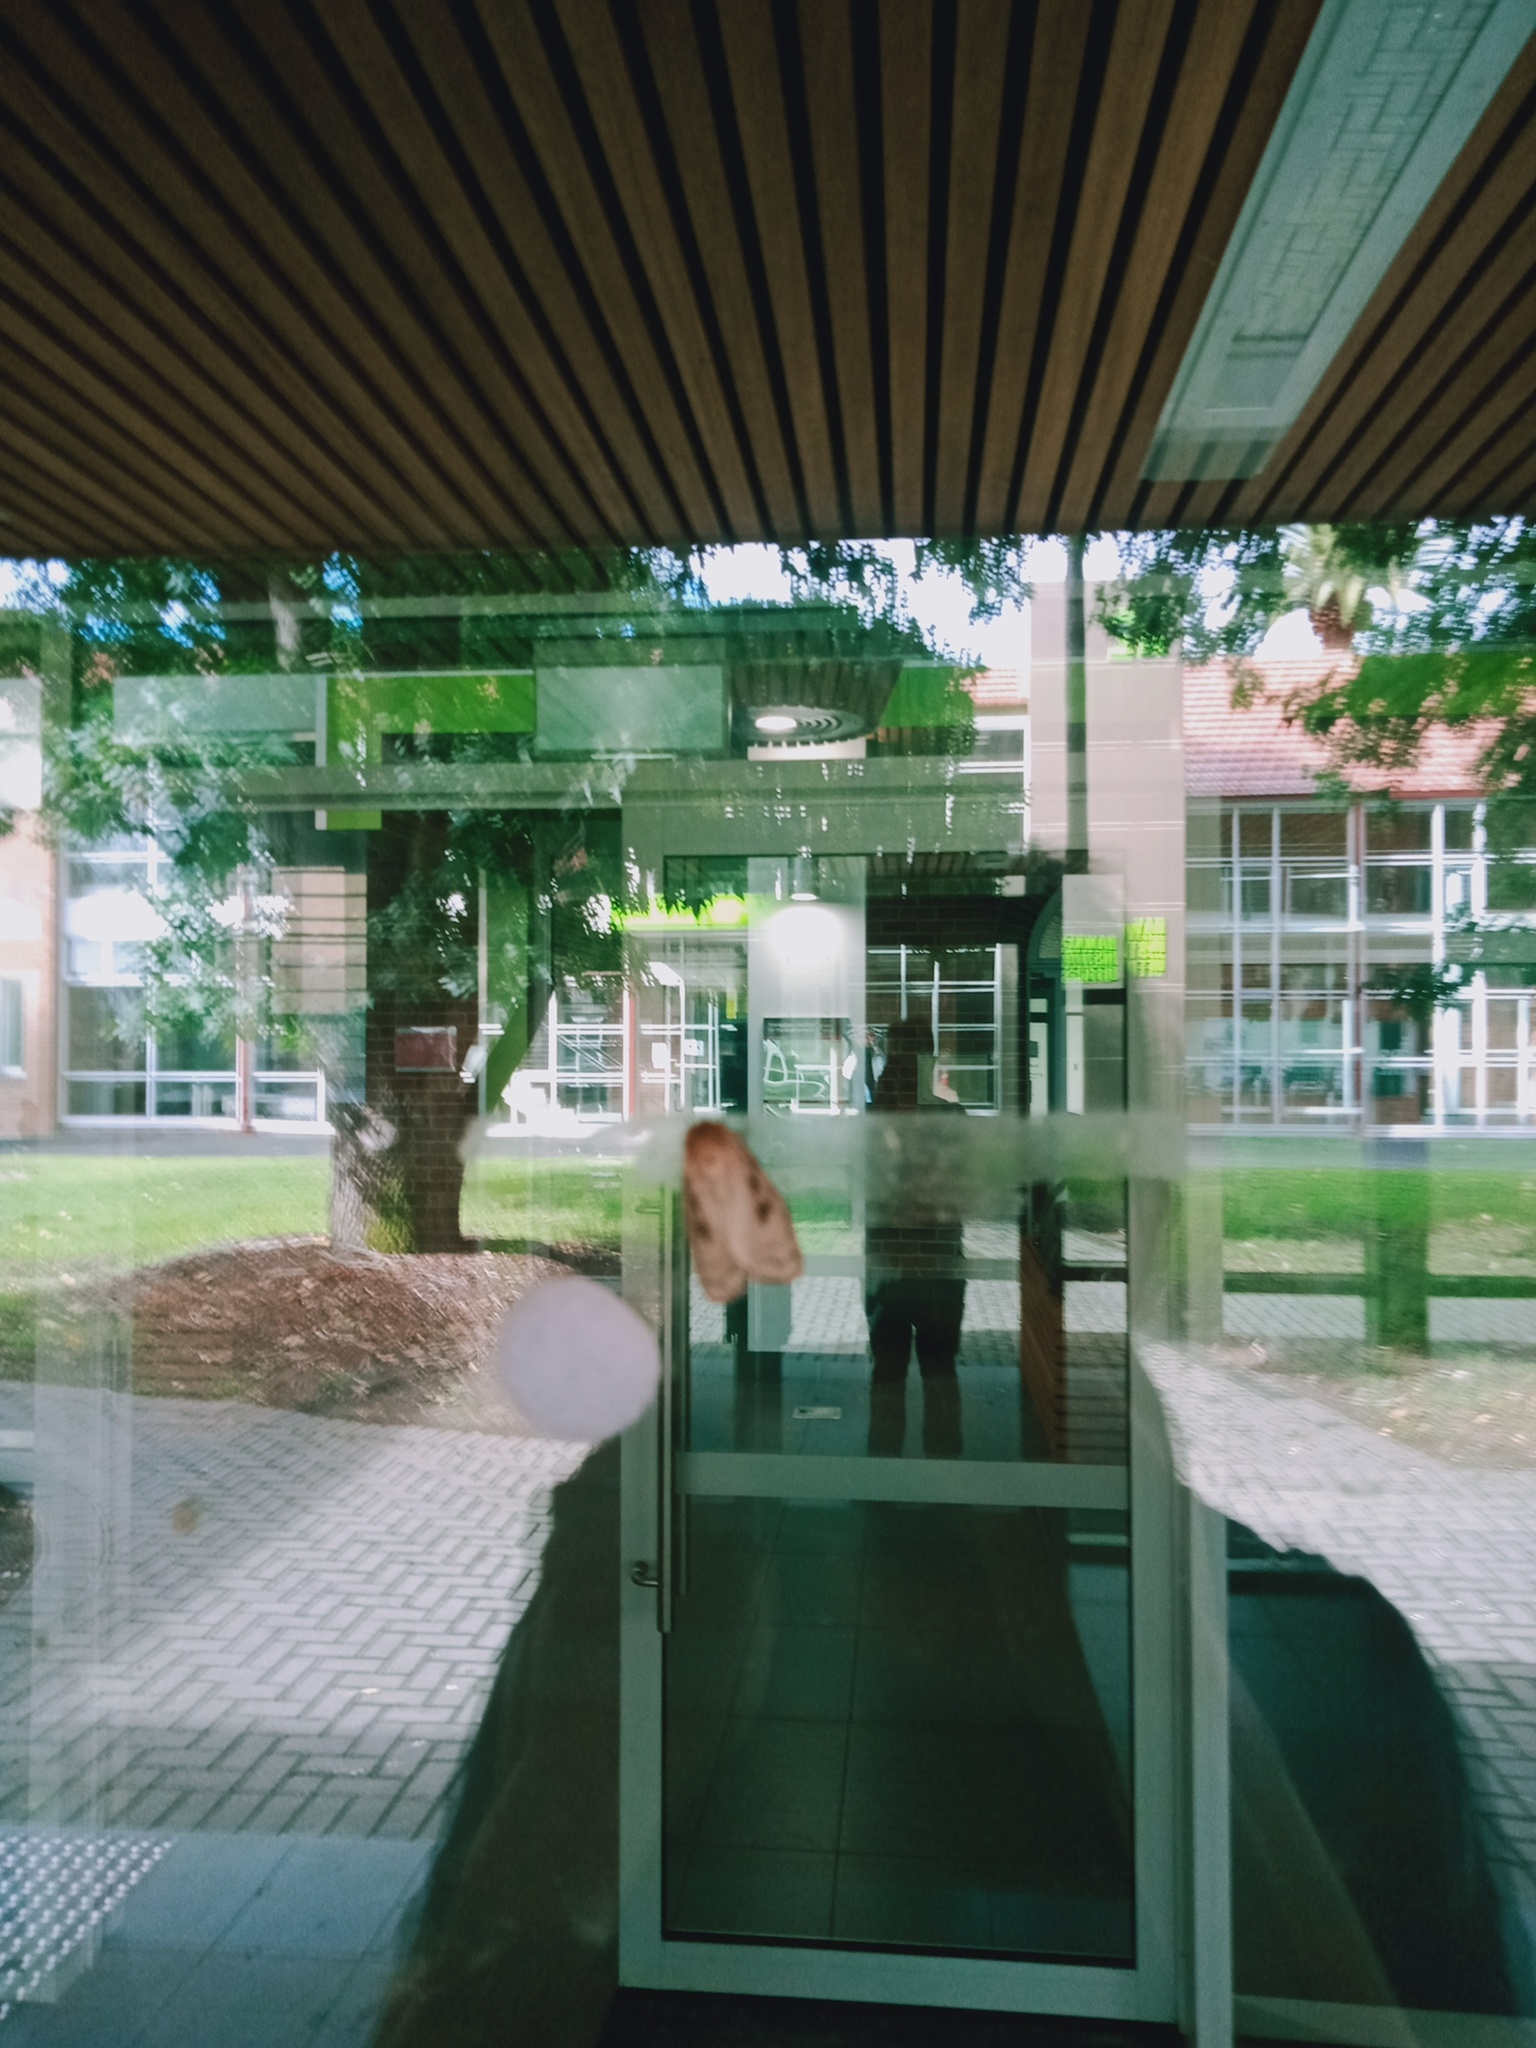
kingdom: Animalia
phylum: Arthropoda
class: Insecta
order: Lepidoptera
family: Erebidae
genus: Leptocneria
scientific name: Leptocneria reducta
